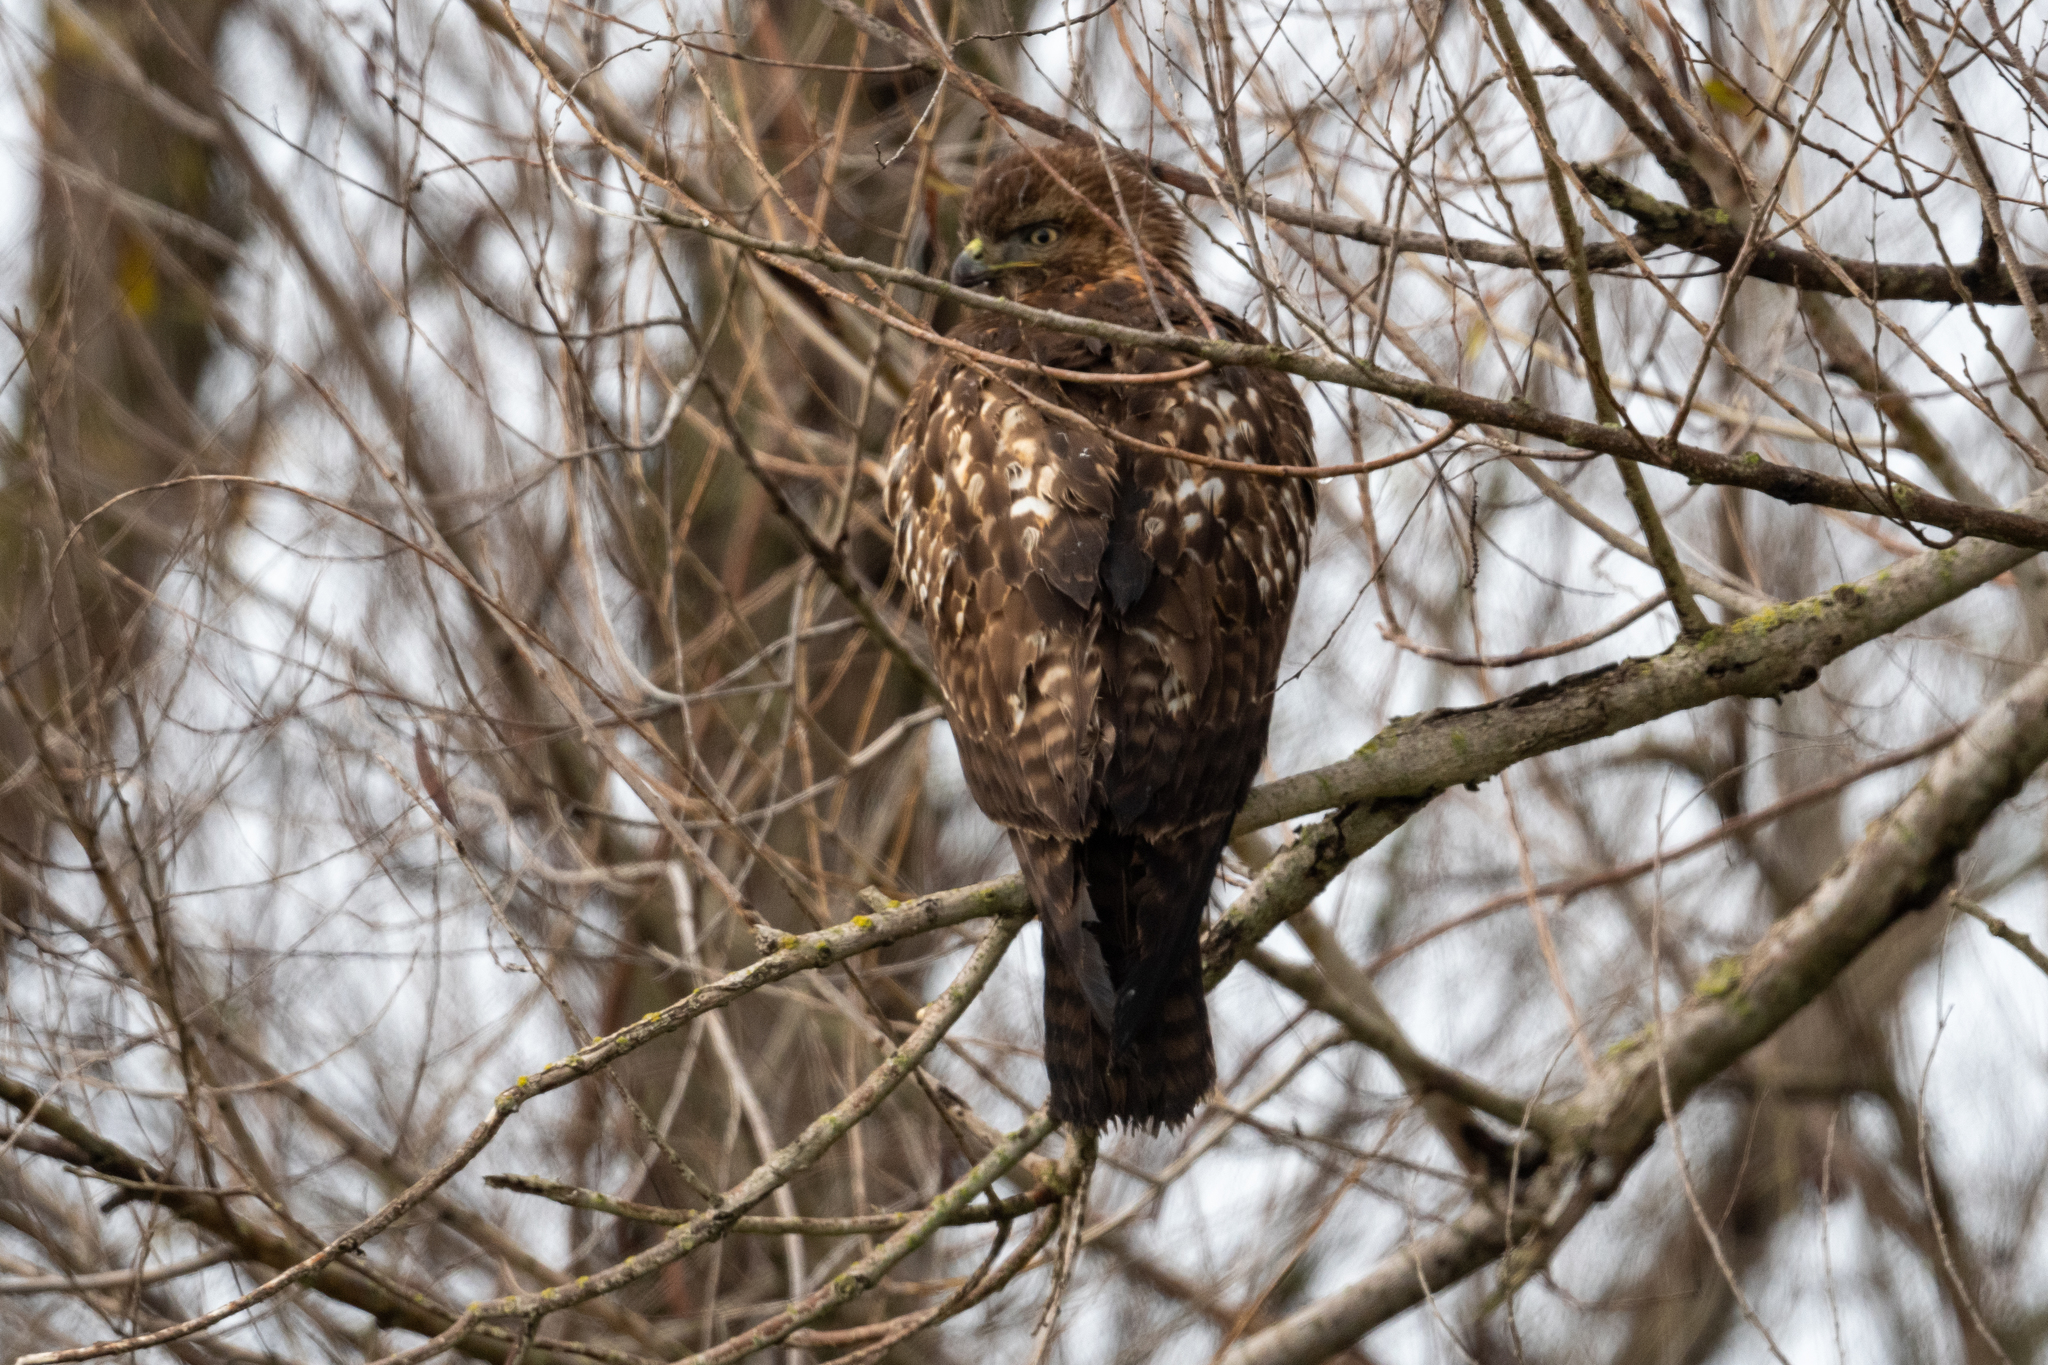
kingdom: Animalia
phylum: Chordata
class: Aves
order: Accipitriformes
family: Accipitridae
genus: Buteo
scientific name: Buteo jamaicensis
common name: Red-tailed hawk
